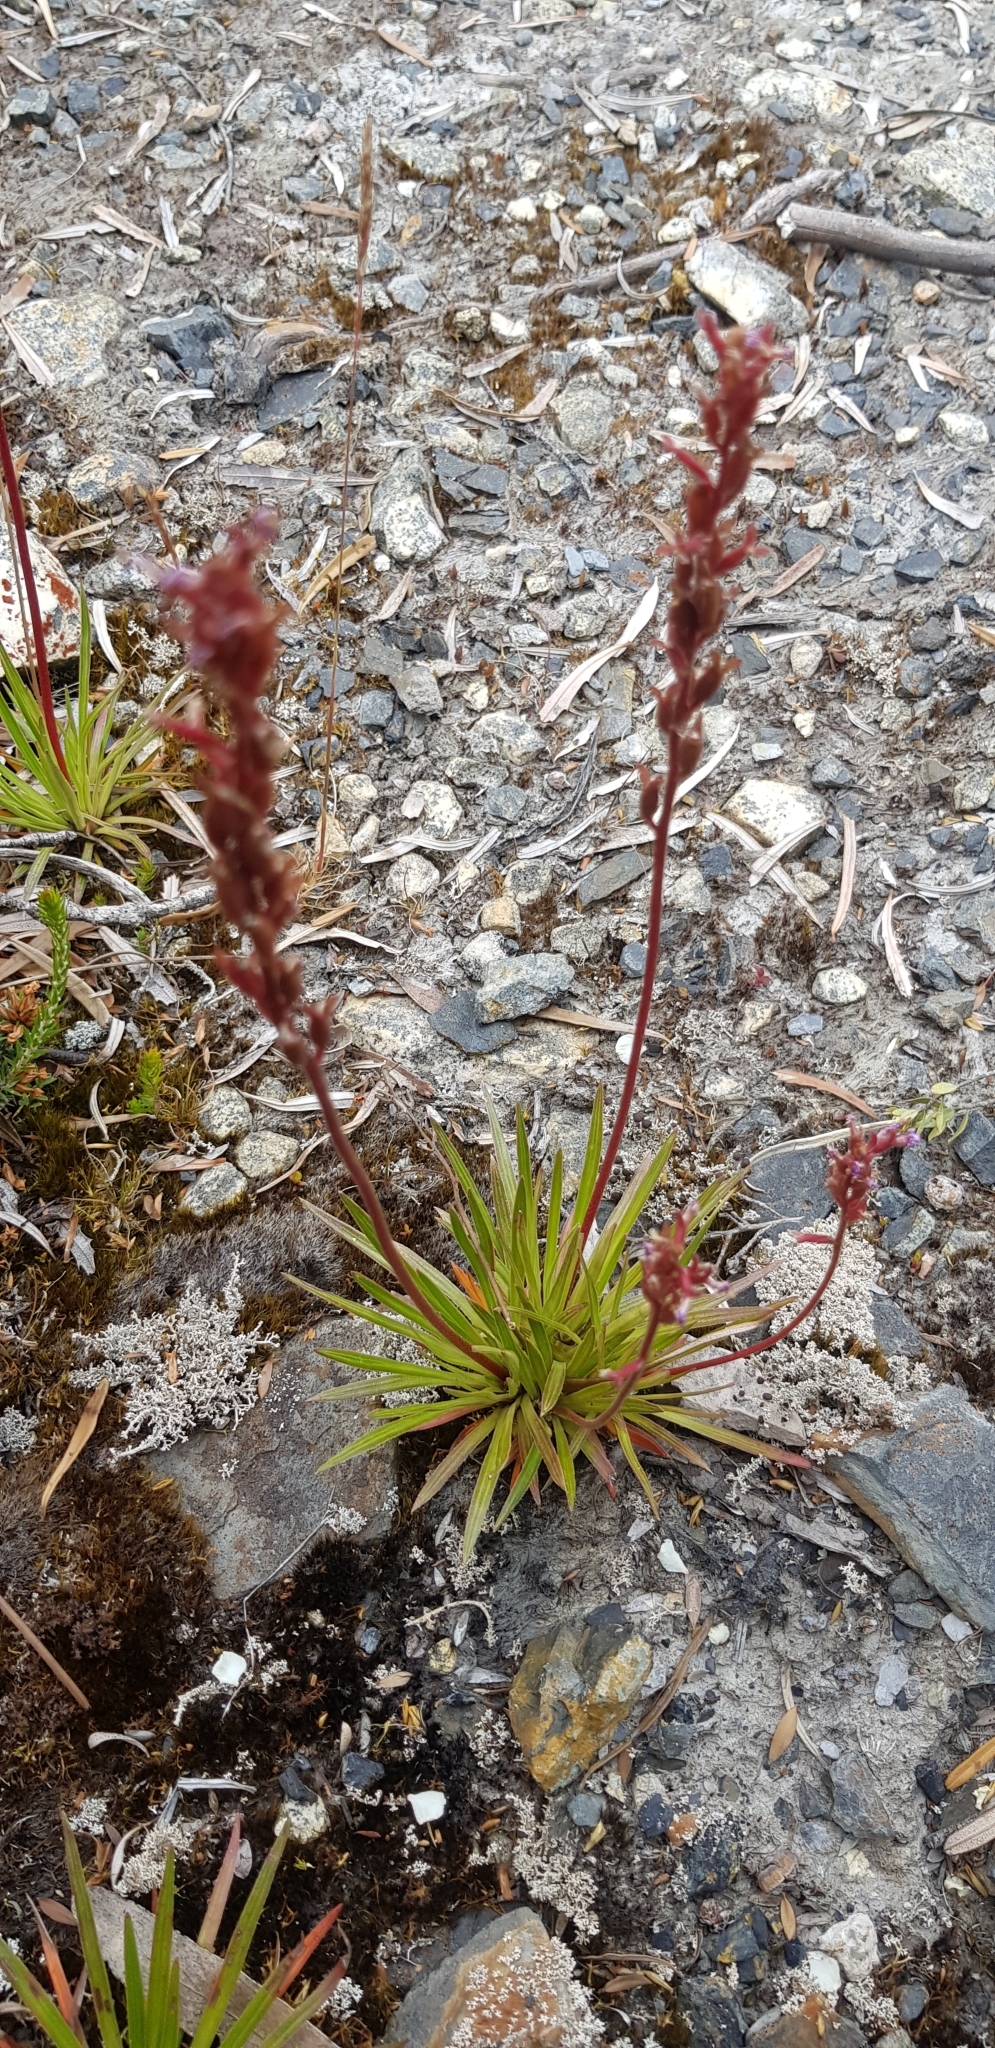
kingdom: Plantae
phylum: Tracheophyta
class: Magnoliopsida
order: Asterales
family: Stylidiaceae
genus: Stylidium
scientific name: Stylidium graminifolium
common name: Grass triggerplant
